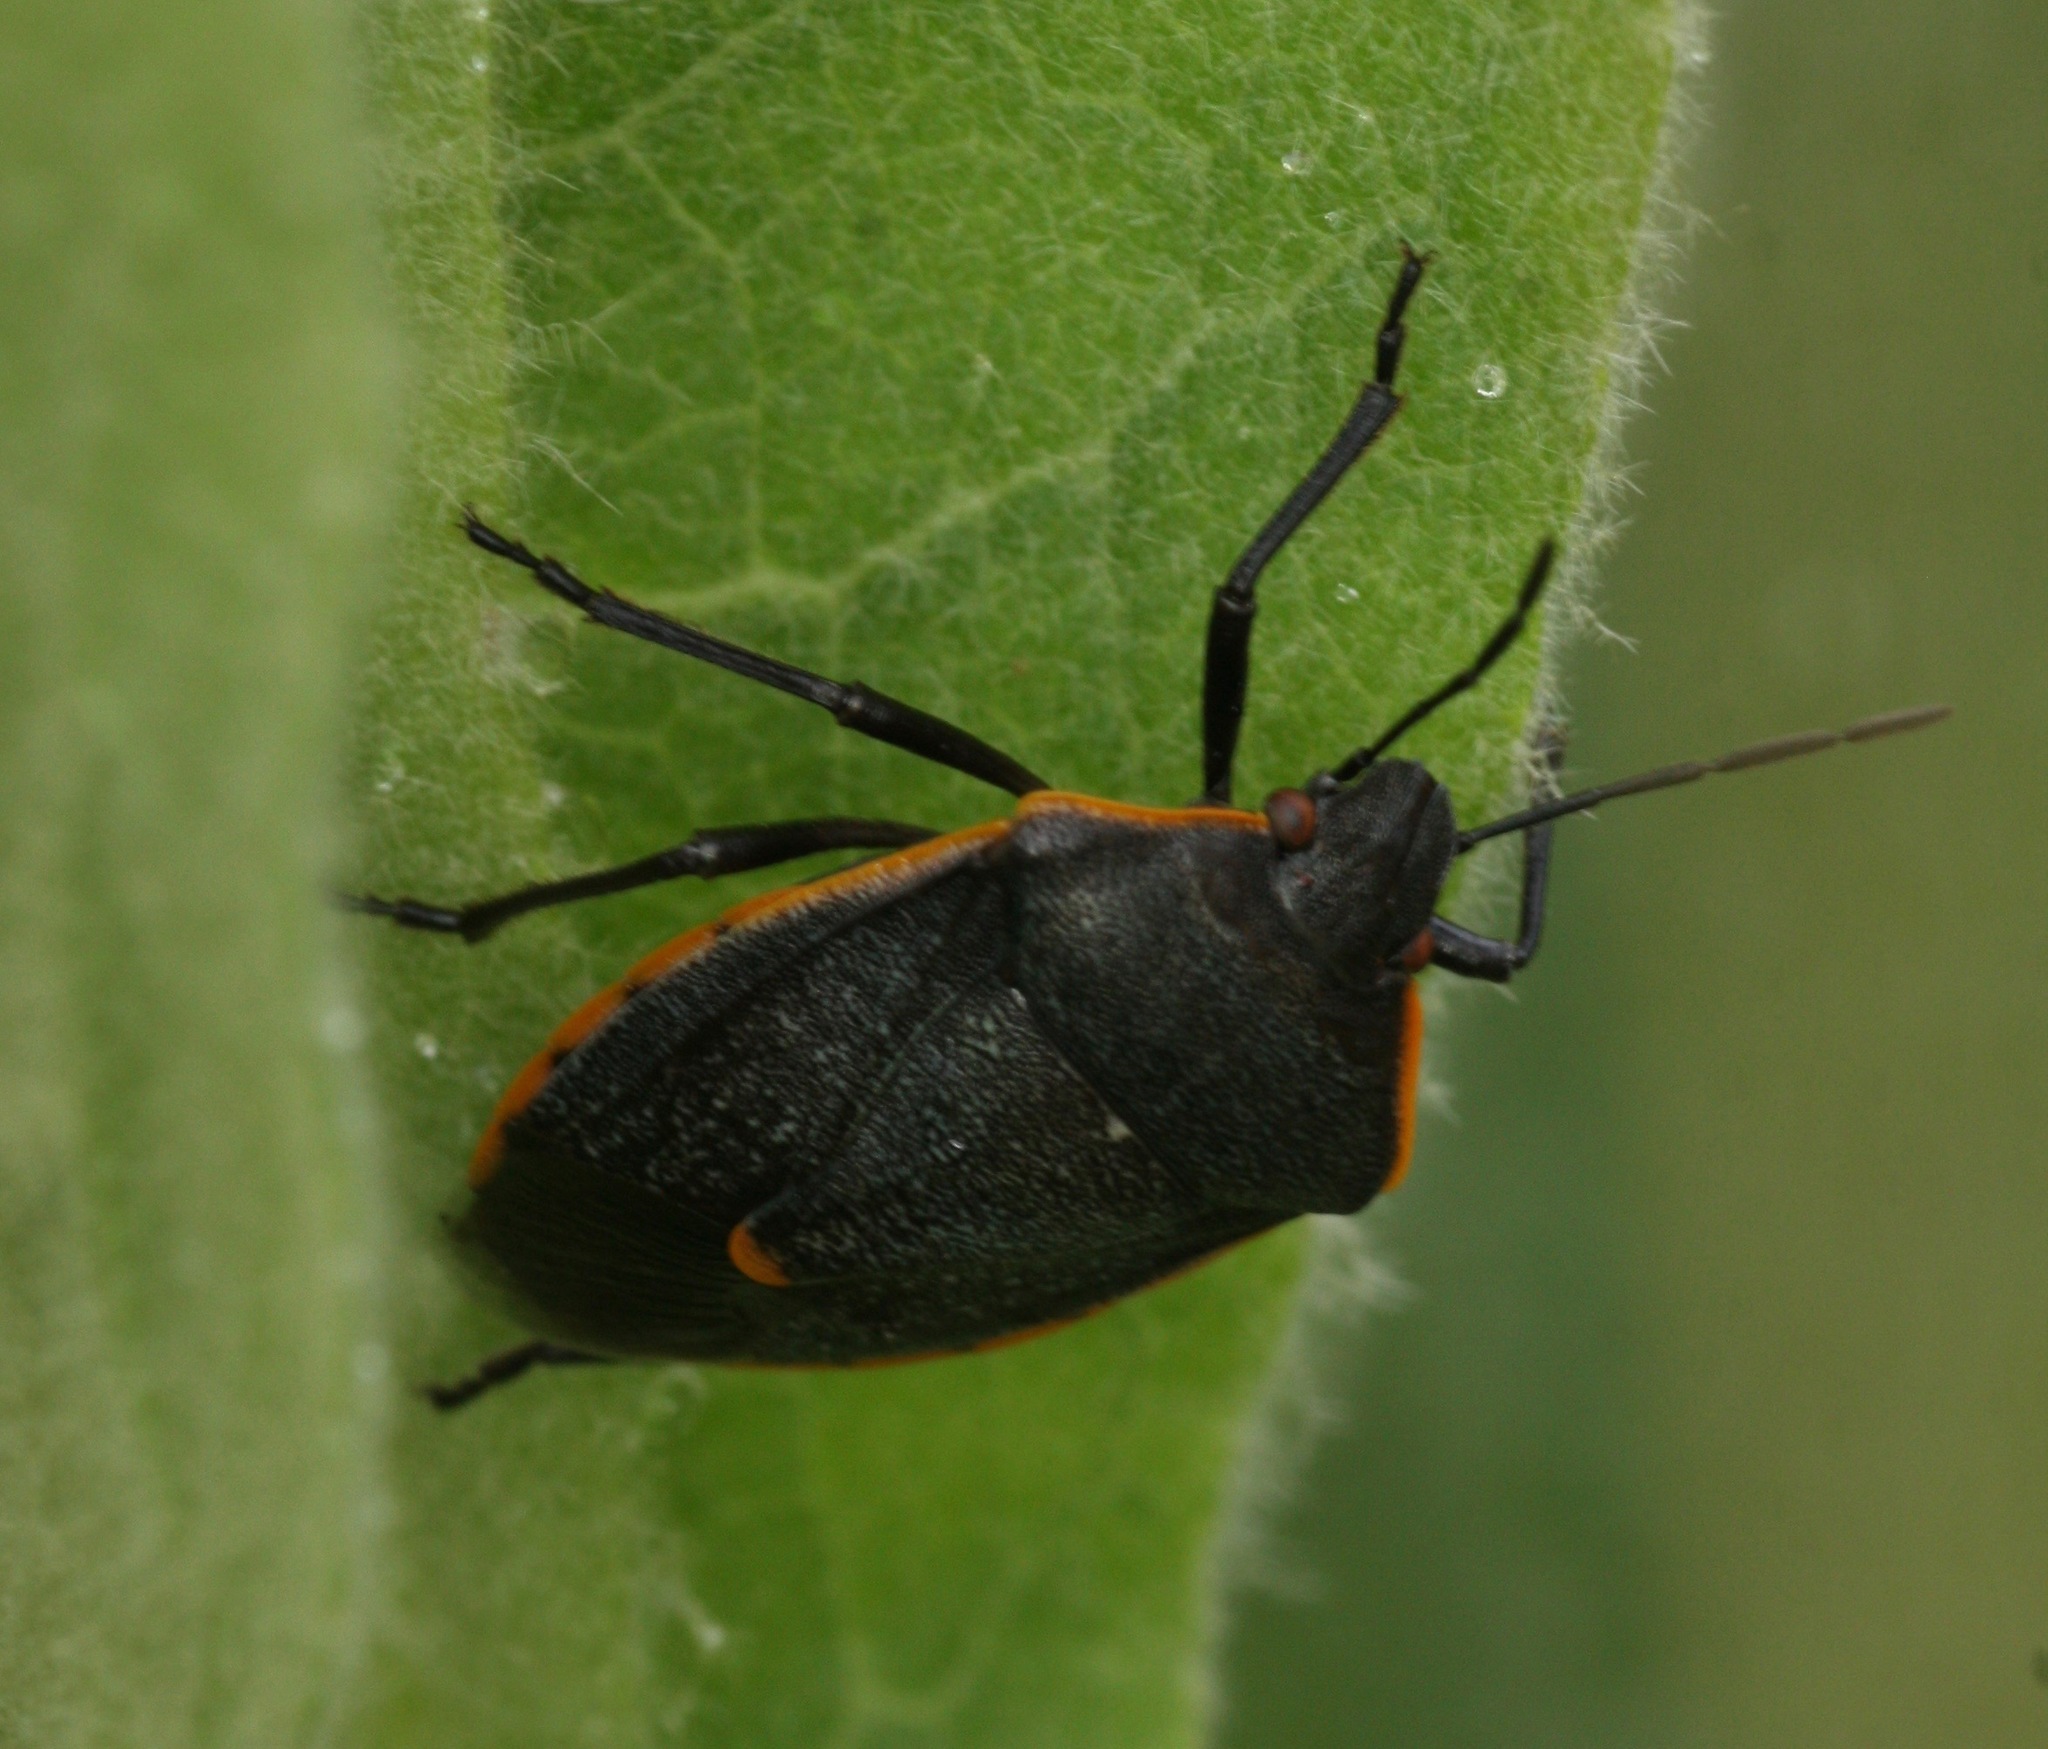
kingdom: Animalia
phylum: Arthropoda
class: Insecta
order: Hemiptera
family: Pentatomidae
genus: Chlorochroa
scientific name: Chlorochroa ligata
